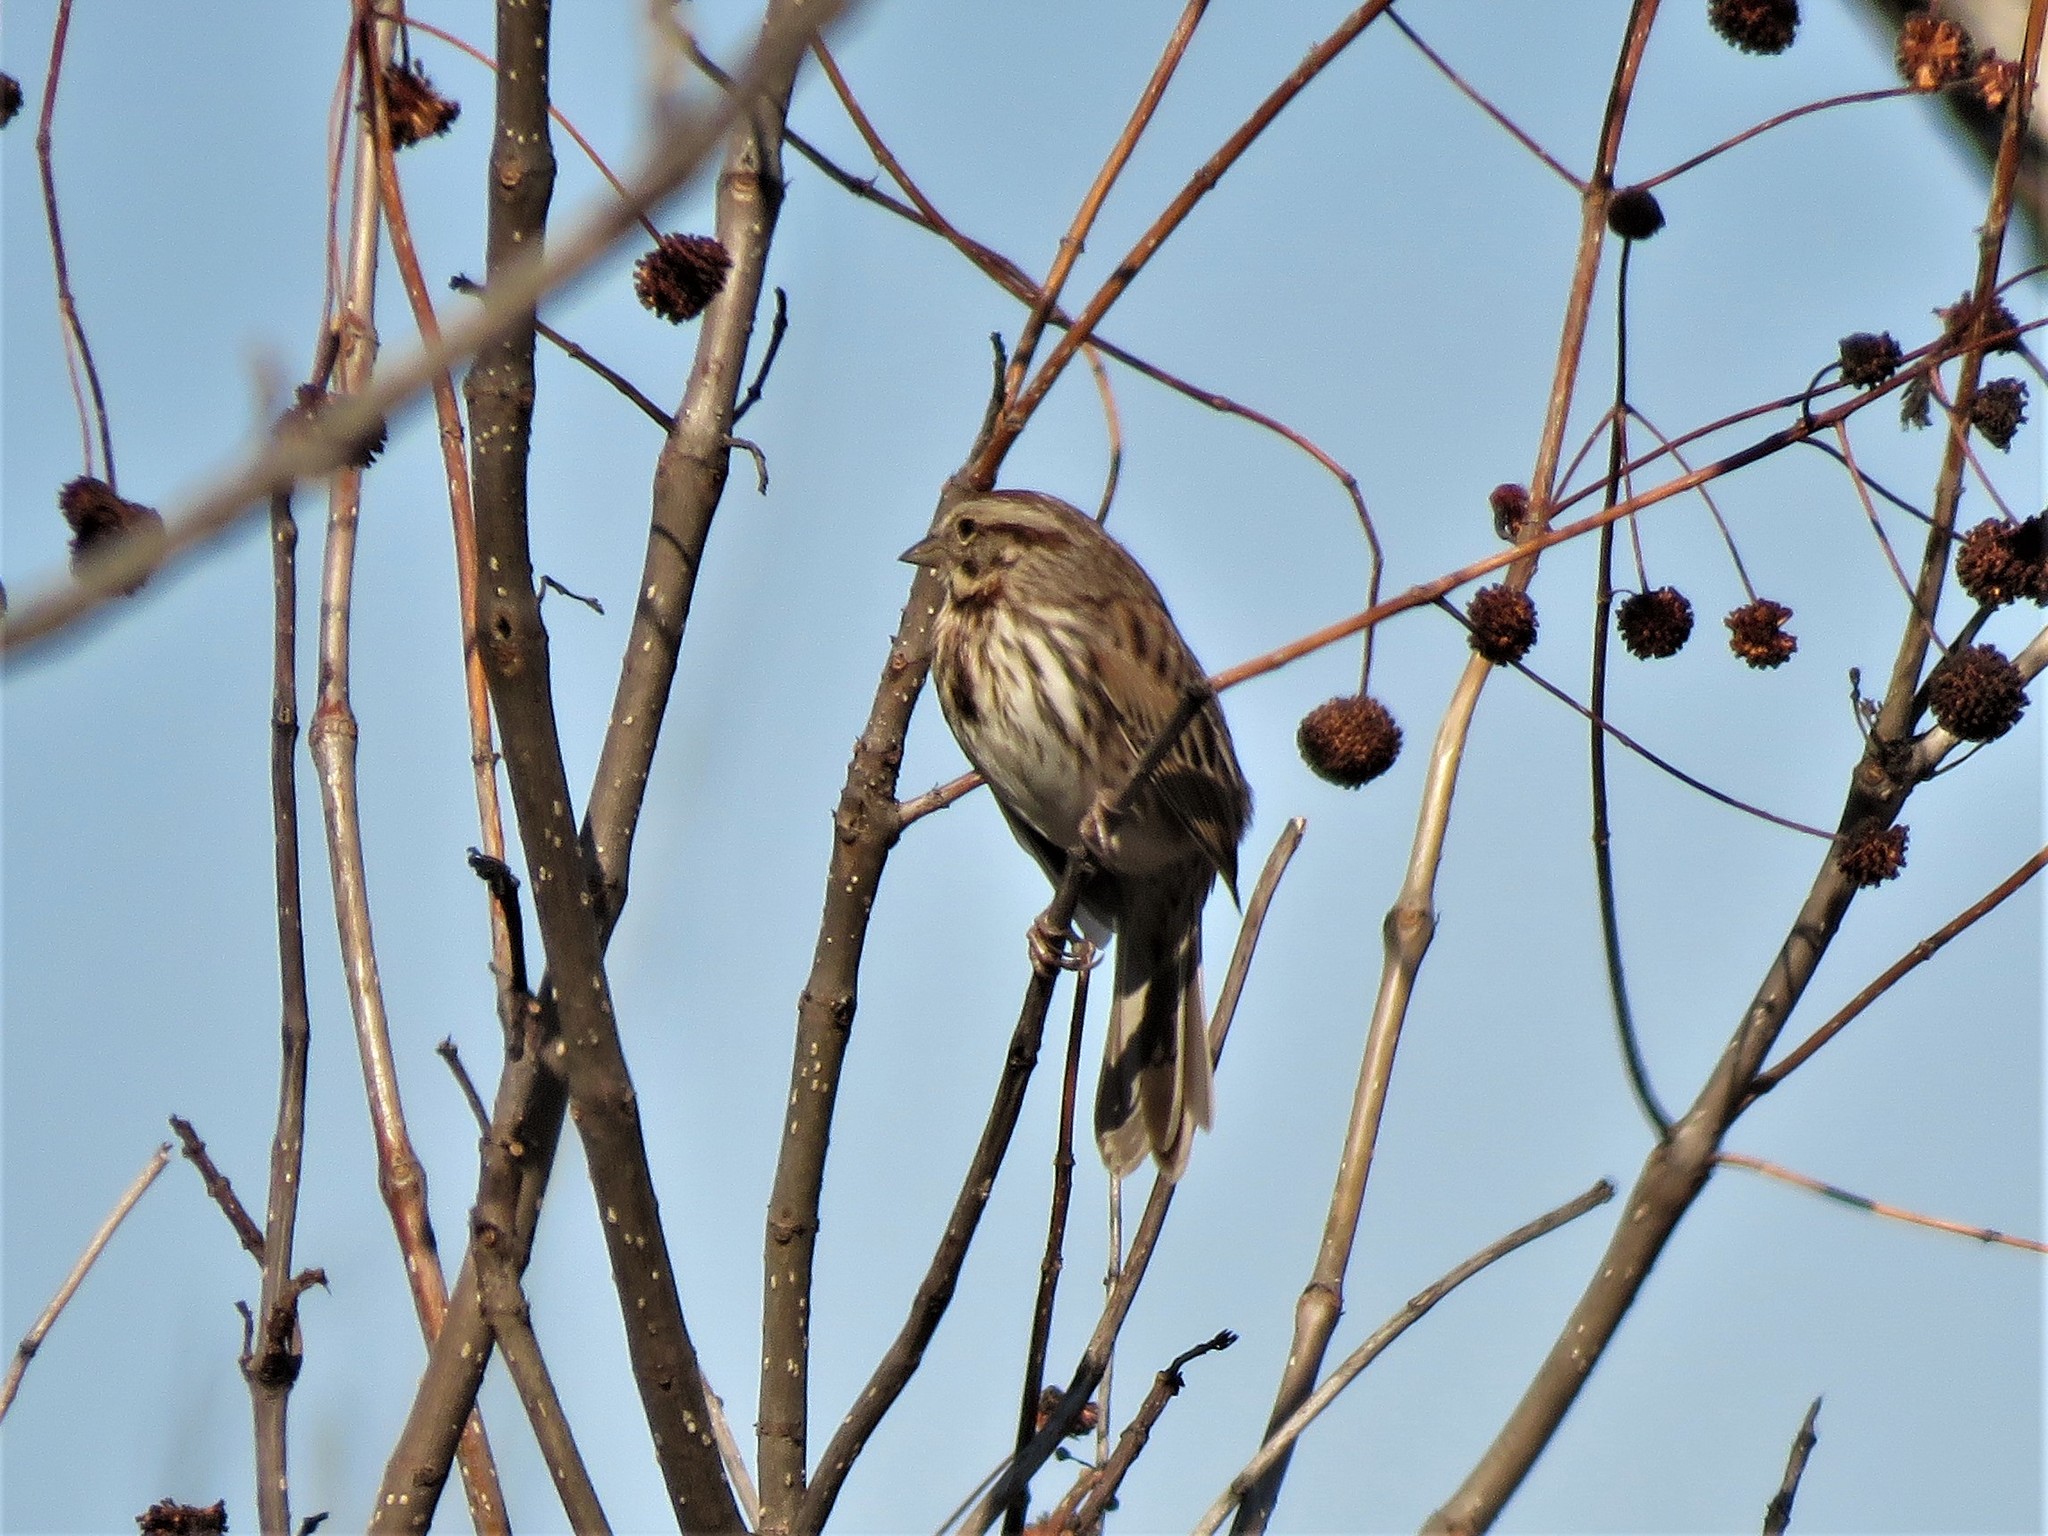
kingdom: Animalia
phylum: Chordata
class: Aves
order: Passeriformes
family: Passerellidae
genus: Melospiza
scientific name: Melospiza melodia
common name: Song sparrow
